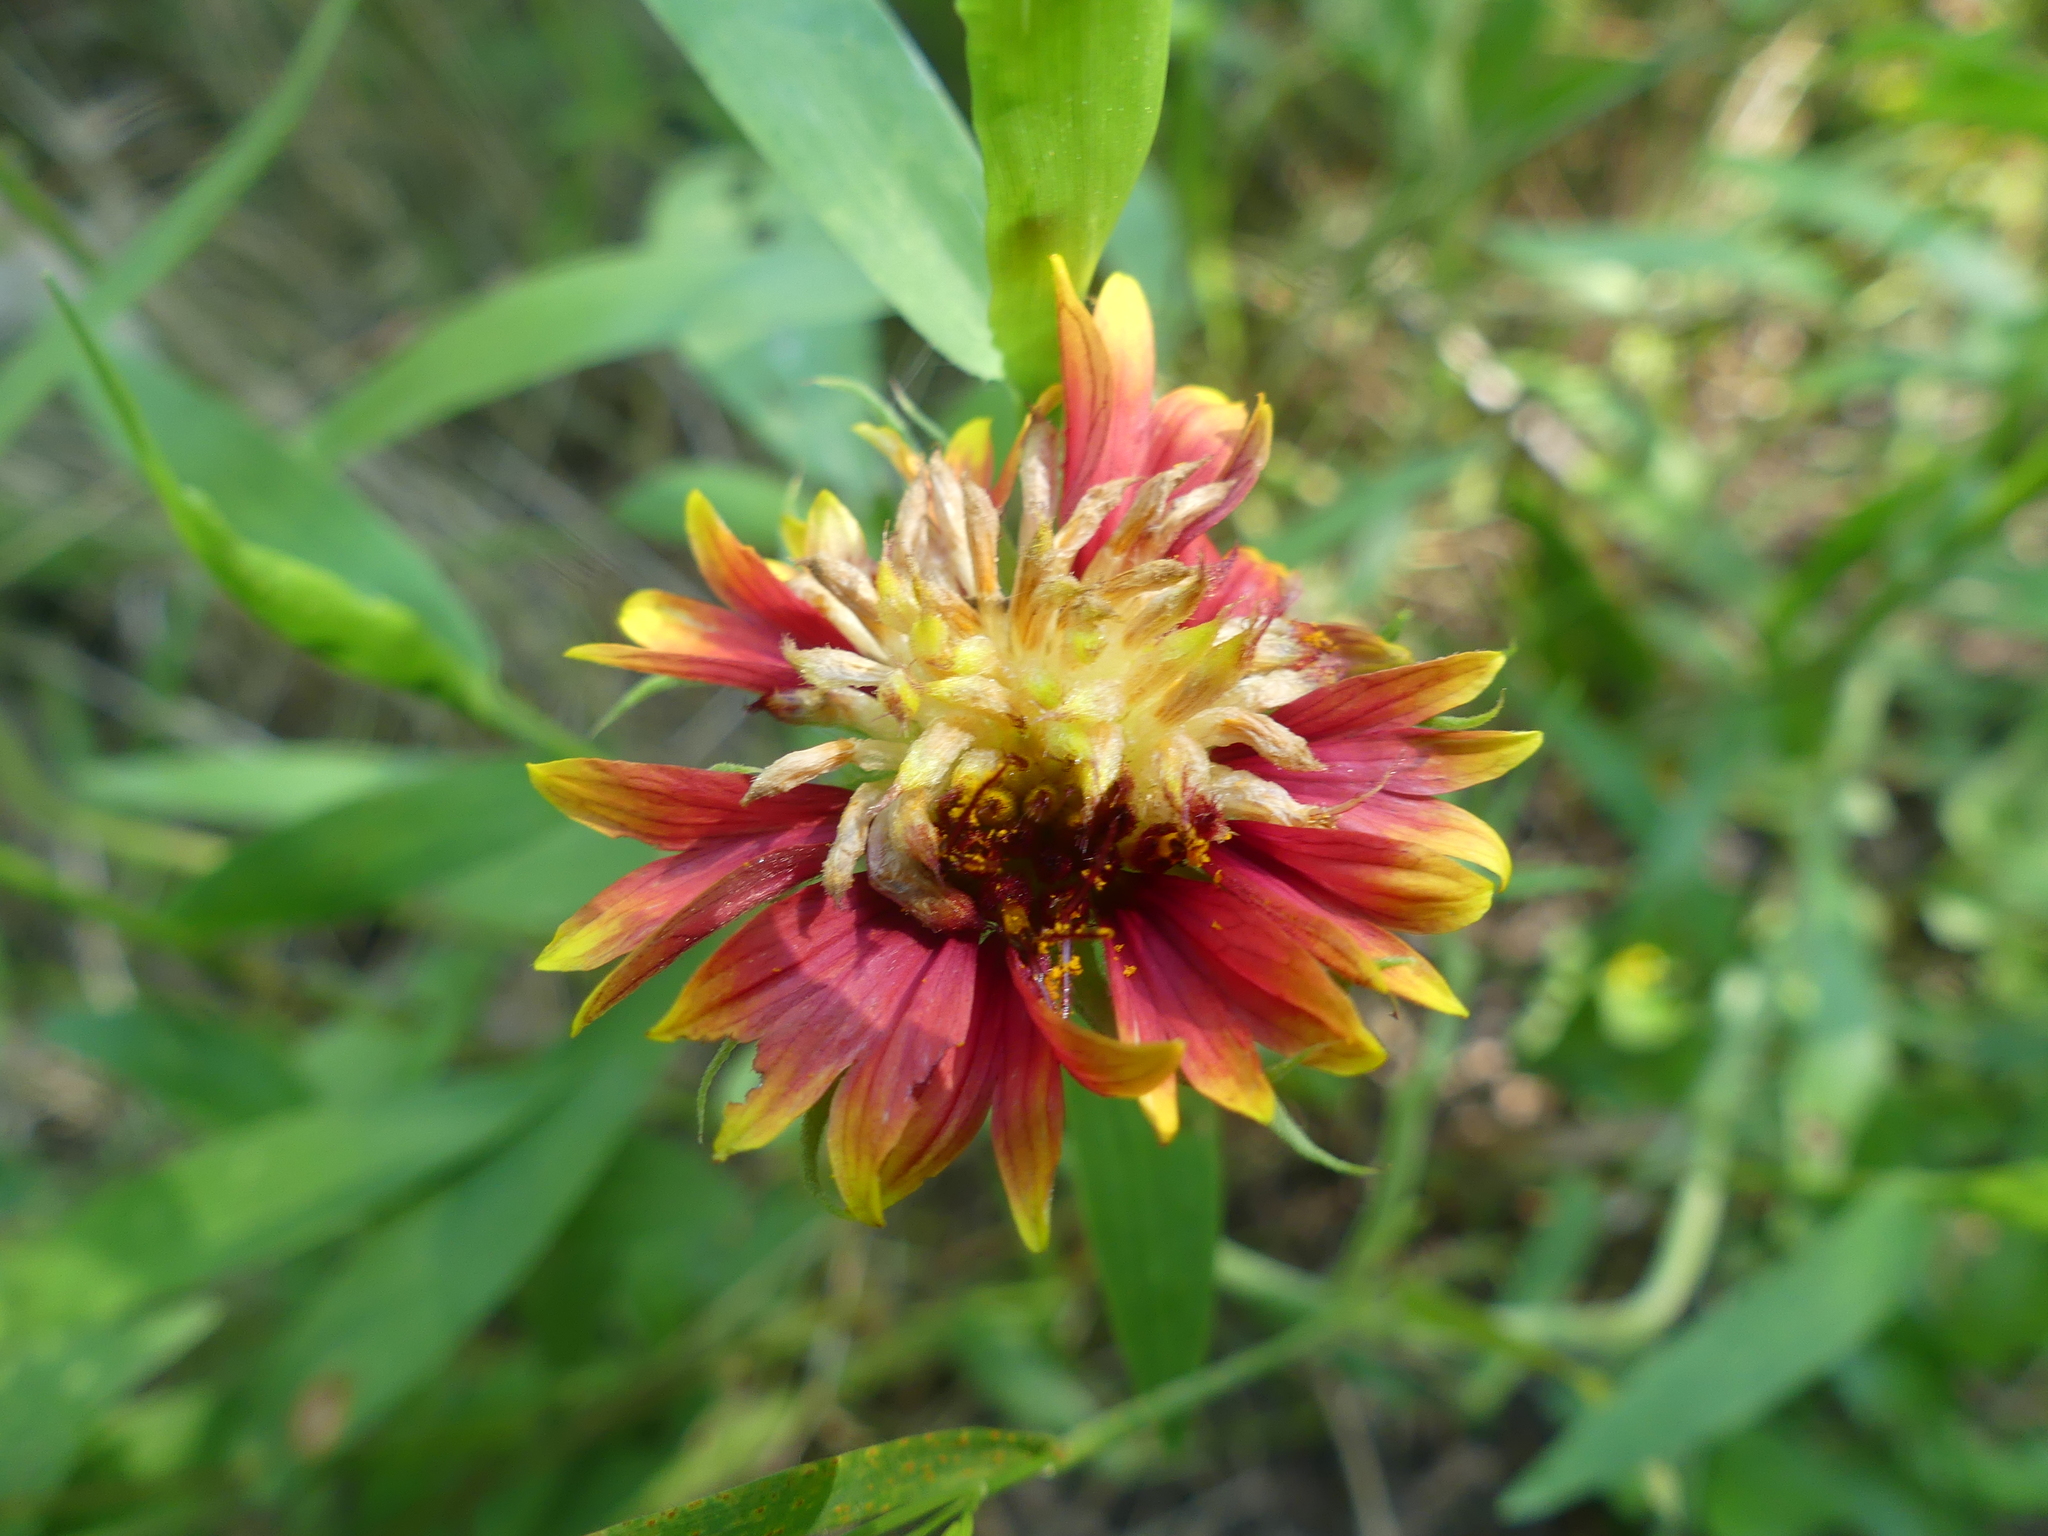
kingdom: Plantae
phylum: Tracheophyta
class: Magnoliopsida
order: Asterales
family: Asteraceae
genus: Gaillardia
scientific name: Gaillardia pulchella
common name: Firewheel
